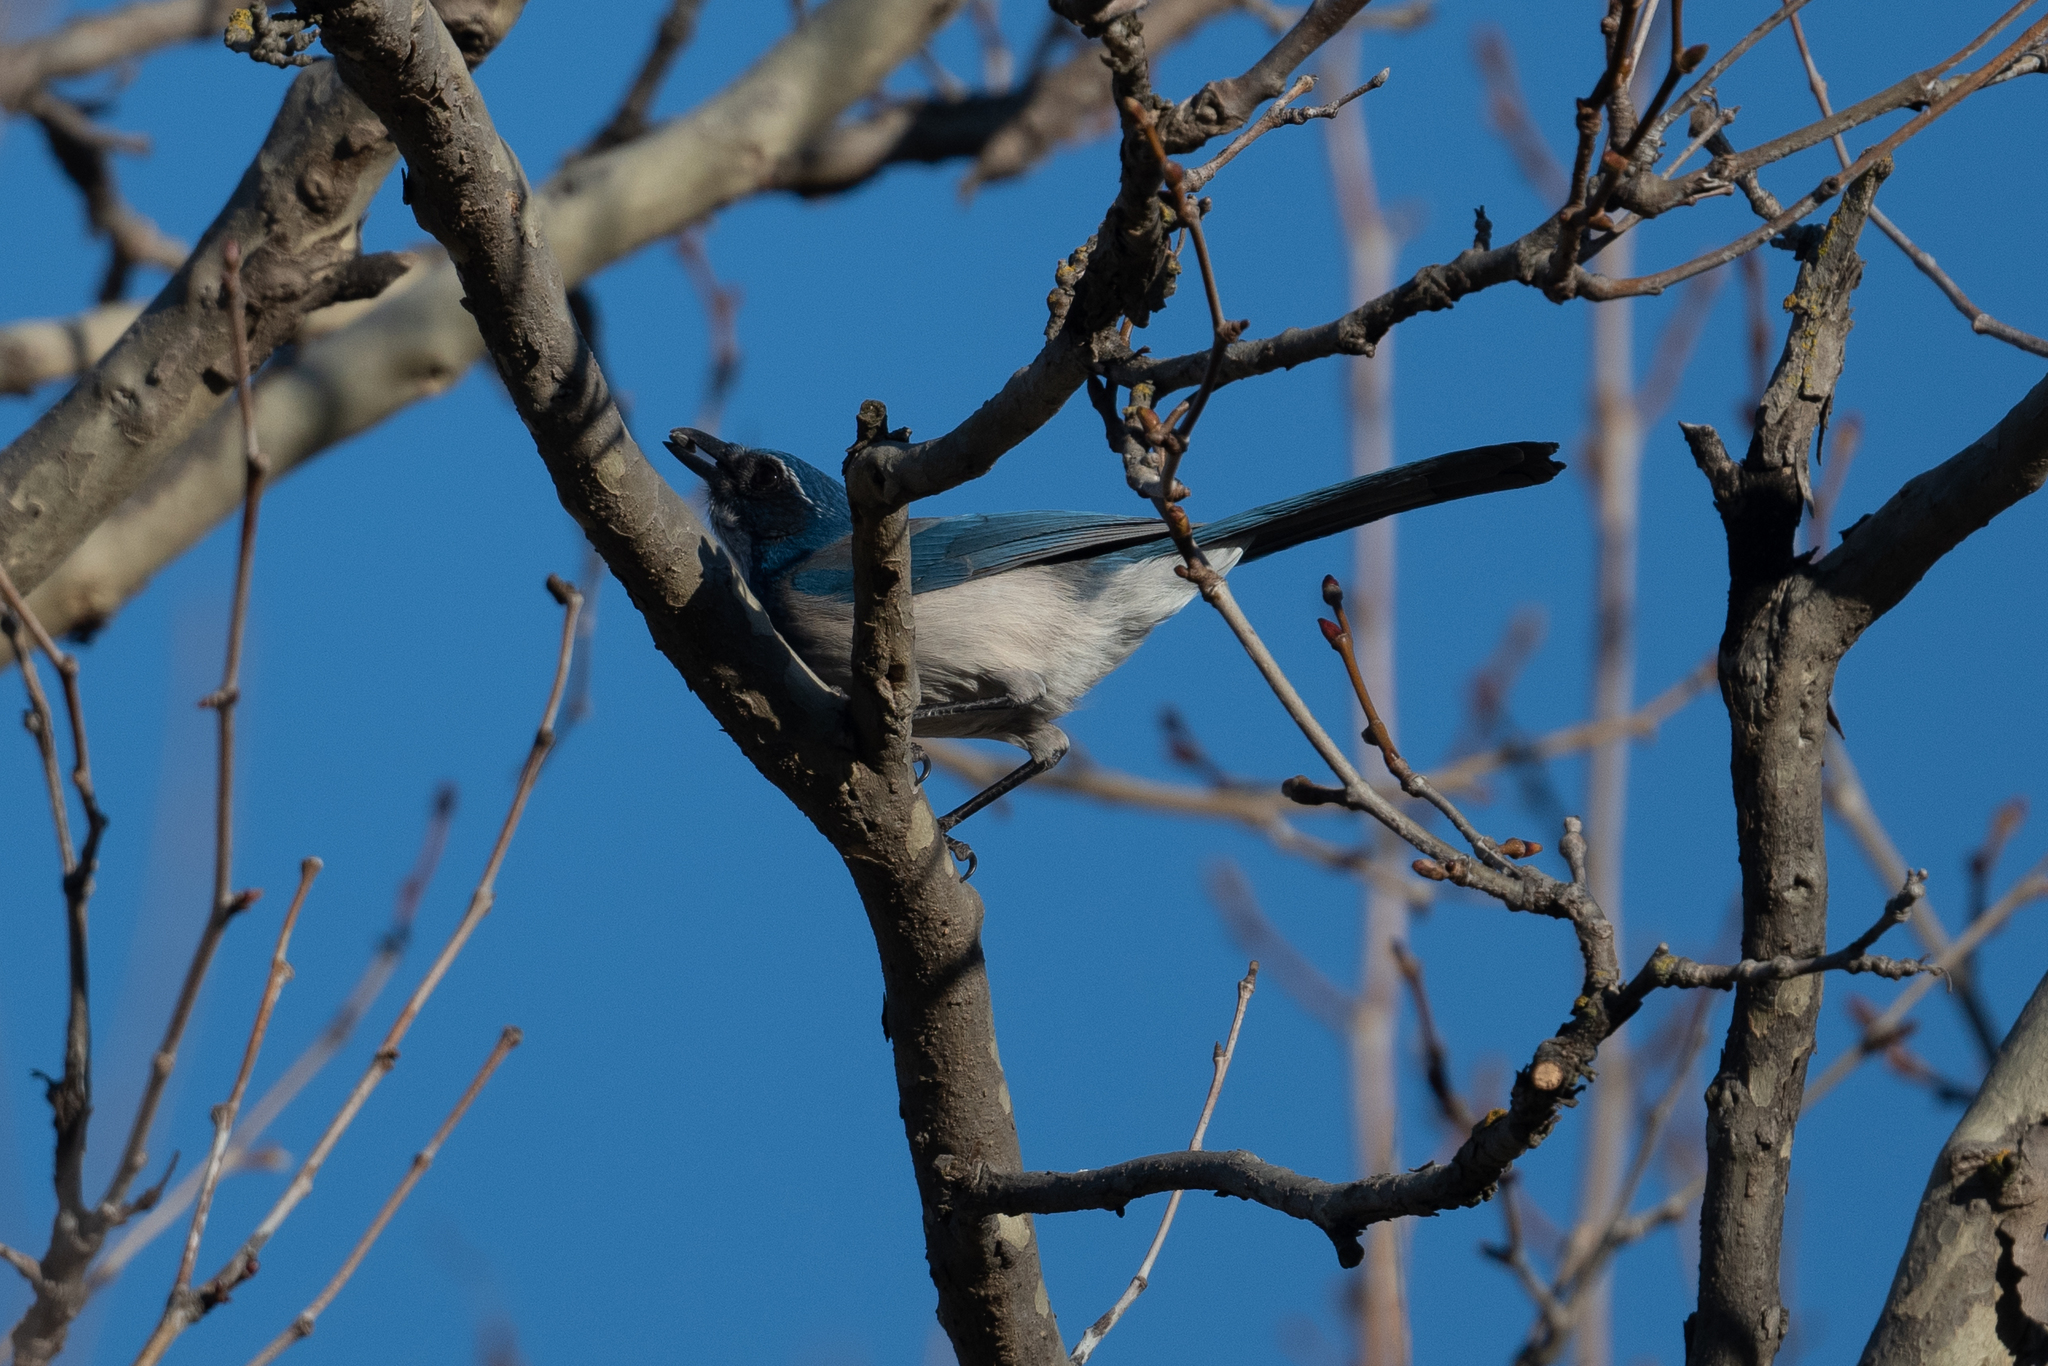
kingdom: Animalia
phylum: Chordata
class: Aves
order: Passeriformes
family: Corvidae
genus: Aphelocoma
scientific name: Aphelocoma californica
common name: California scrub-jay
